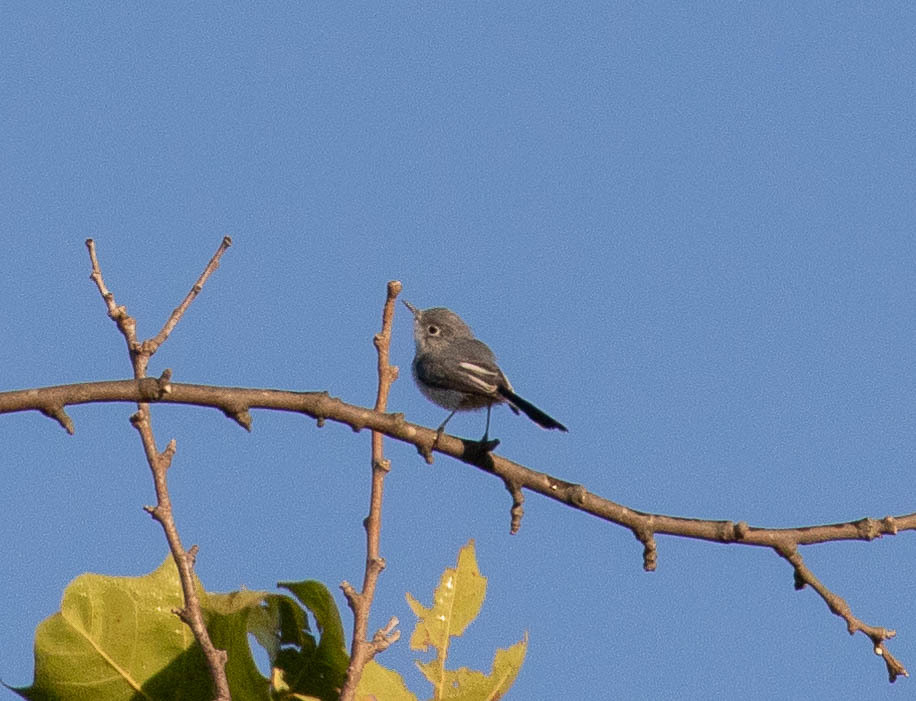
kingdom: Animalia
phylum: Chordata
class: Aves
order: Passeriformes
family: Polioptilidae
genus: Polioptila
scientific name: Polioptila caerulea
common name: Blue-gray gnatcatcher
